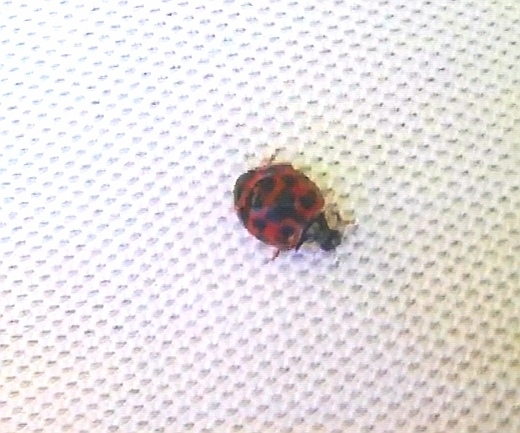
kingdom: Animalia
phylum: Arthropoda
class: Insecta
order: Coleoptera
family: Coccinellidae
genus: Harmonia
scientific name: Harmonia axyridis
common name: Harlequin ladybird
